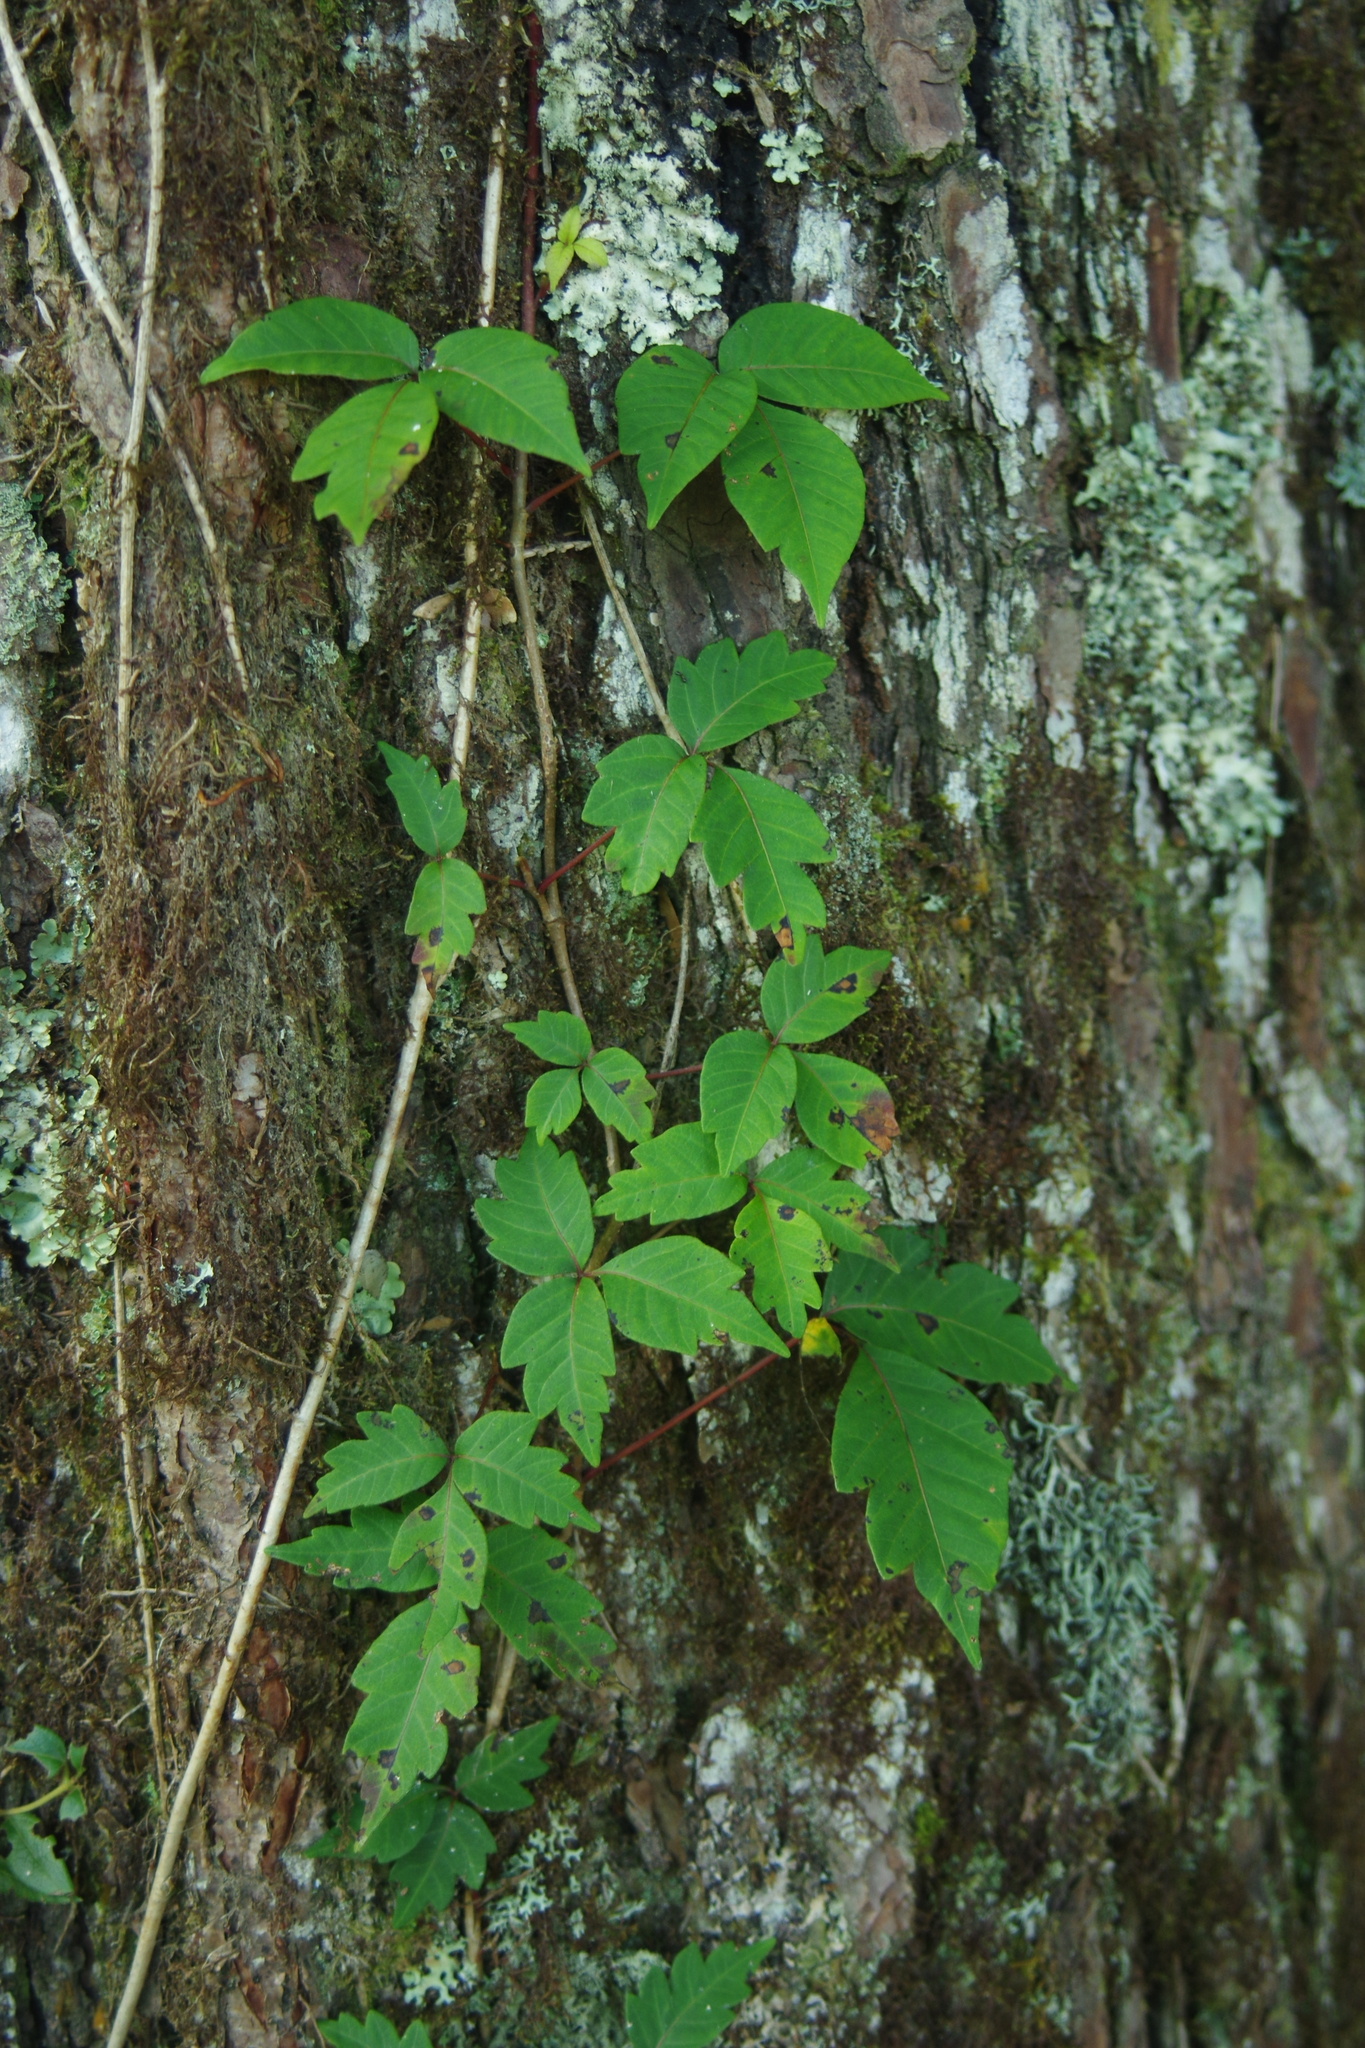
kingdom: Plantae
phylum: Tracheophyta
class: Magnoliopsida
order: Sapindales
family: Anacardiaceae
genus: Toxicodendron
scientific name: Toxicodendron orientale
